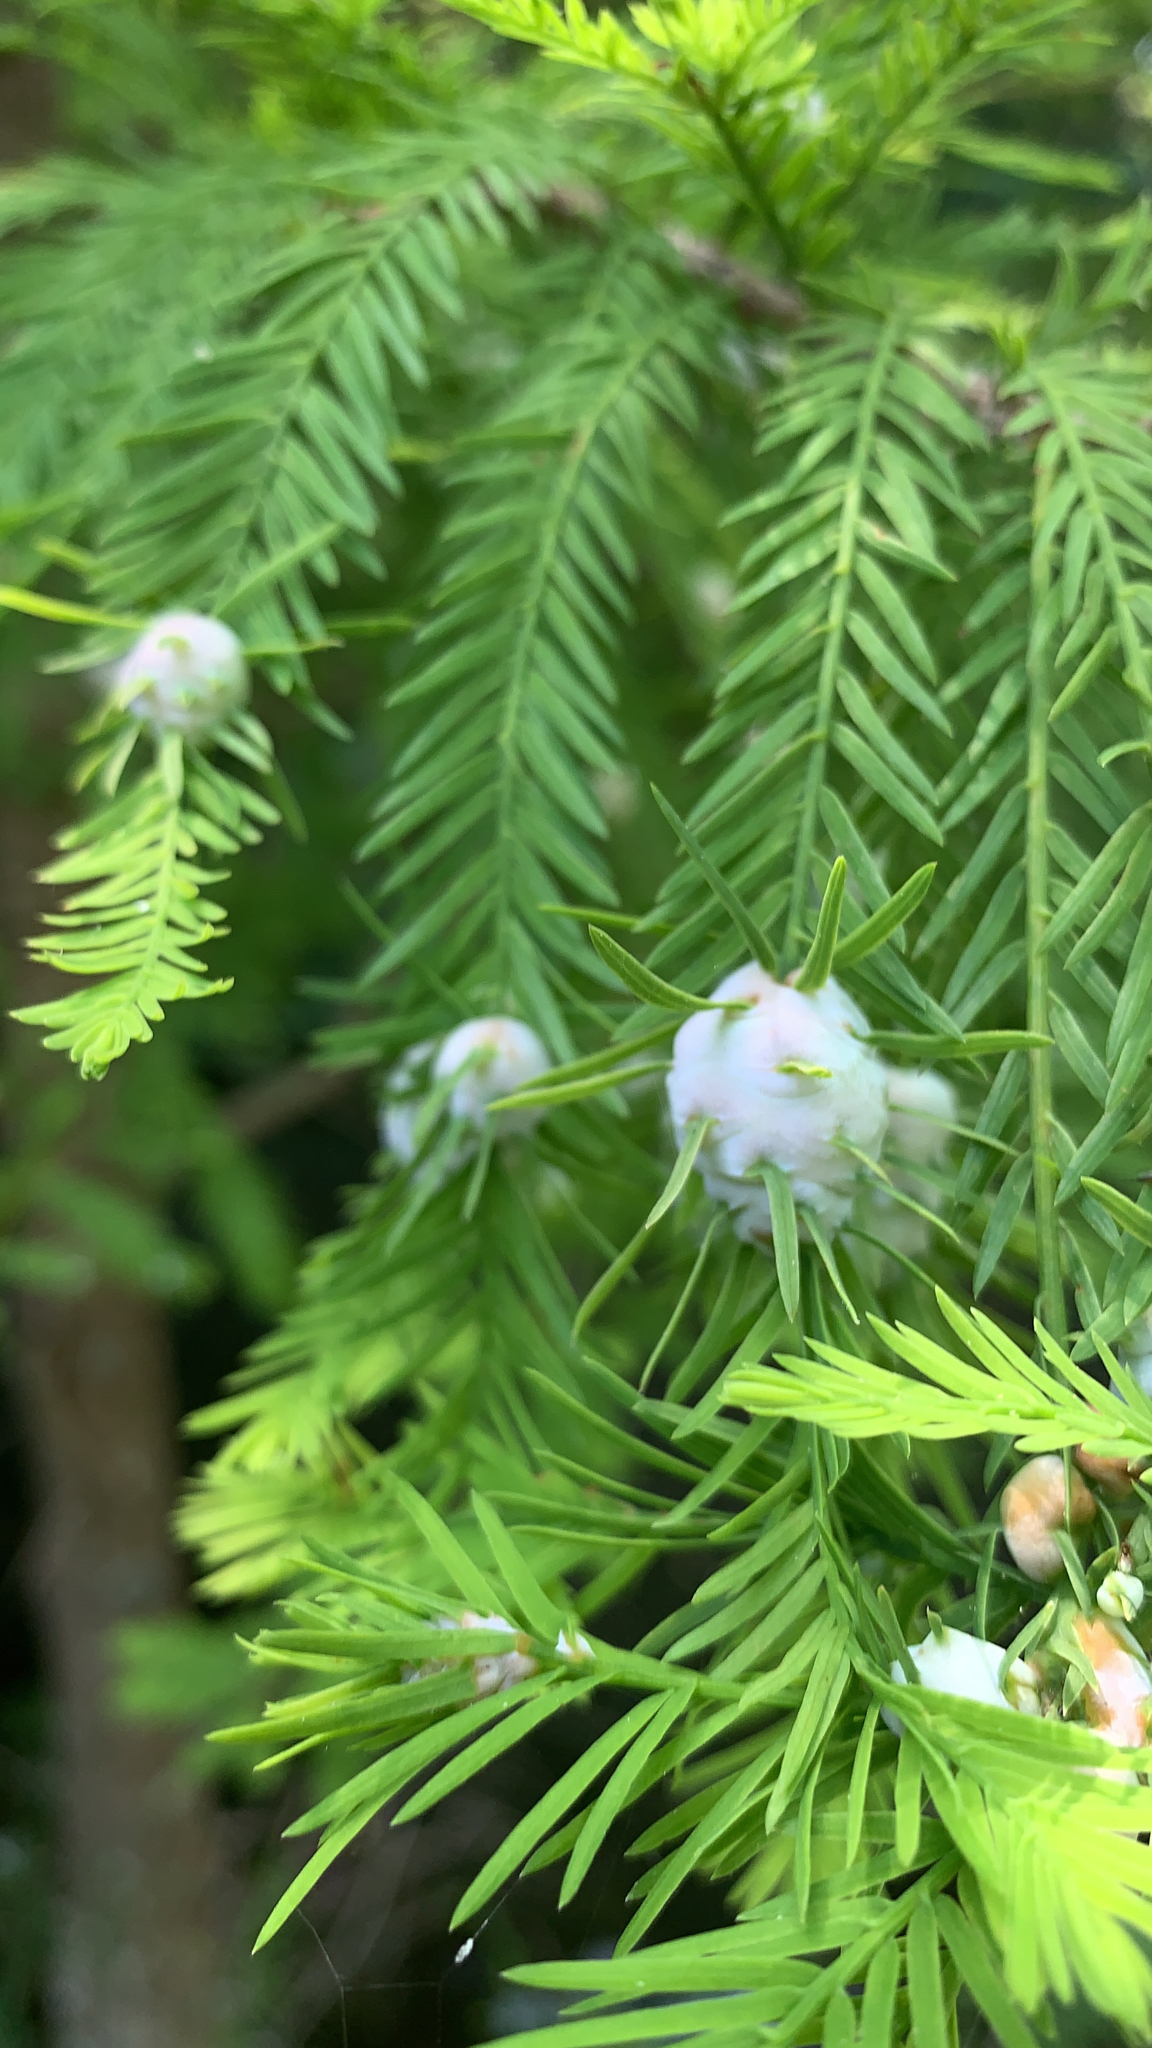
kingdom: Animalia
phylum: Arthropoda
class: Insecta
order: Diptera
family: Cecidomyiidae
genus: Taxodiomyia
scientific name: Taxodiomyia cupressiananassa
